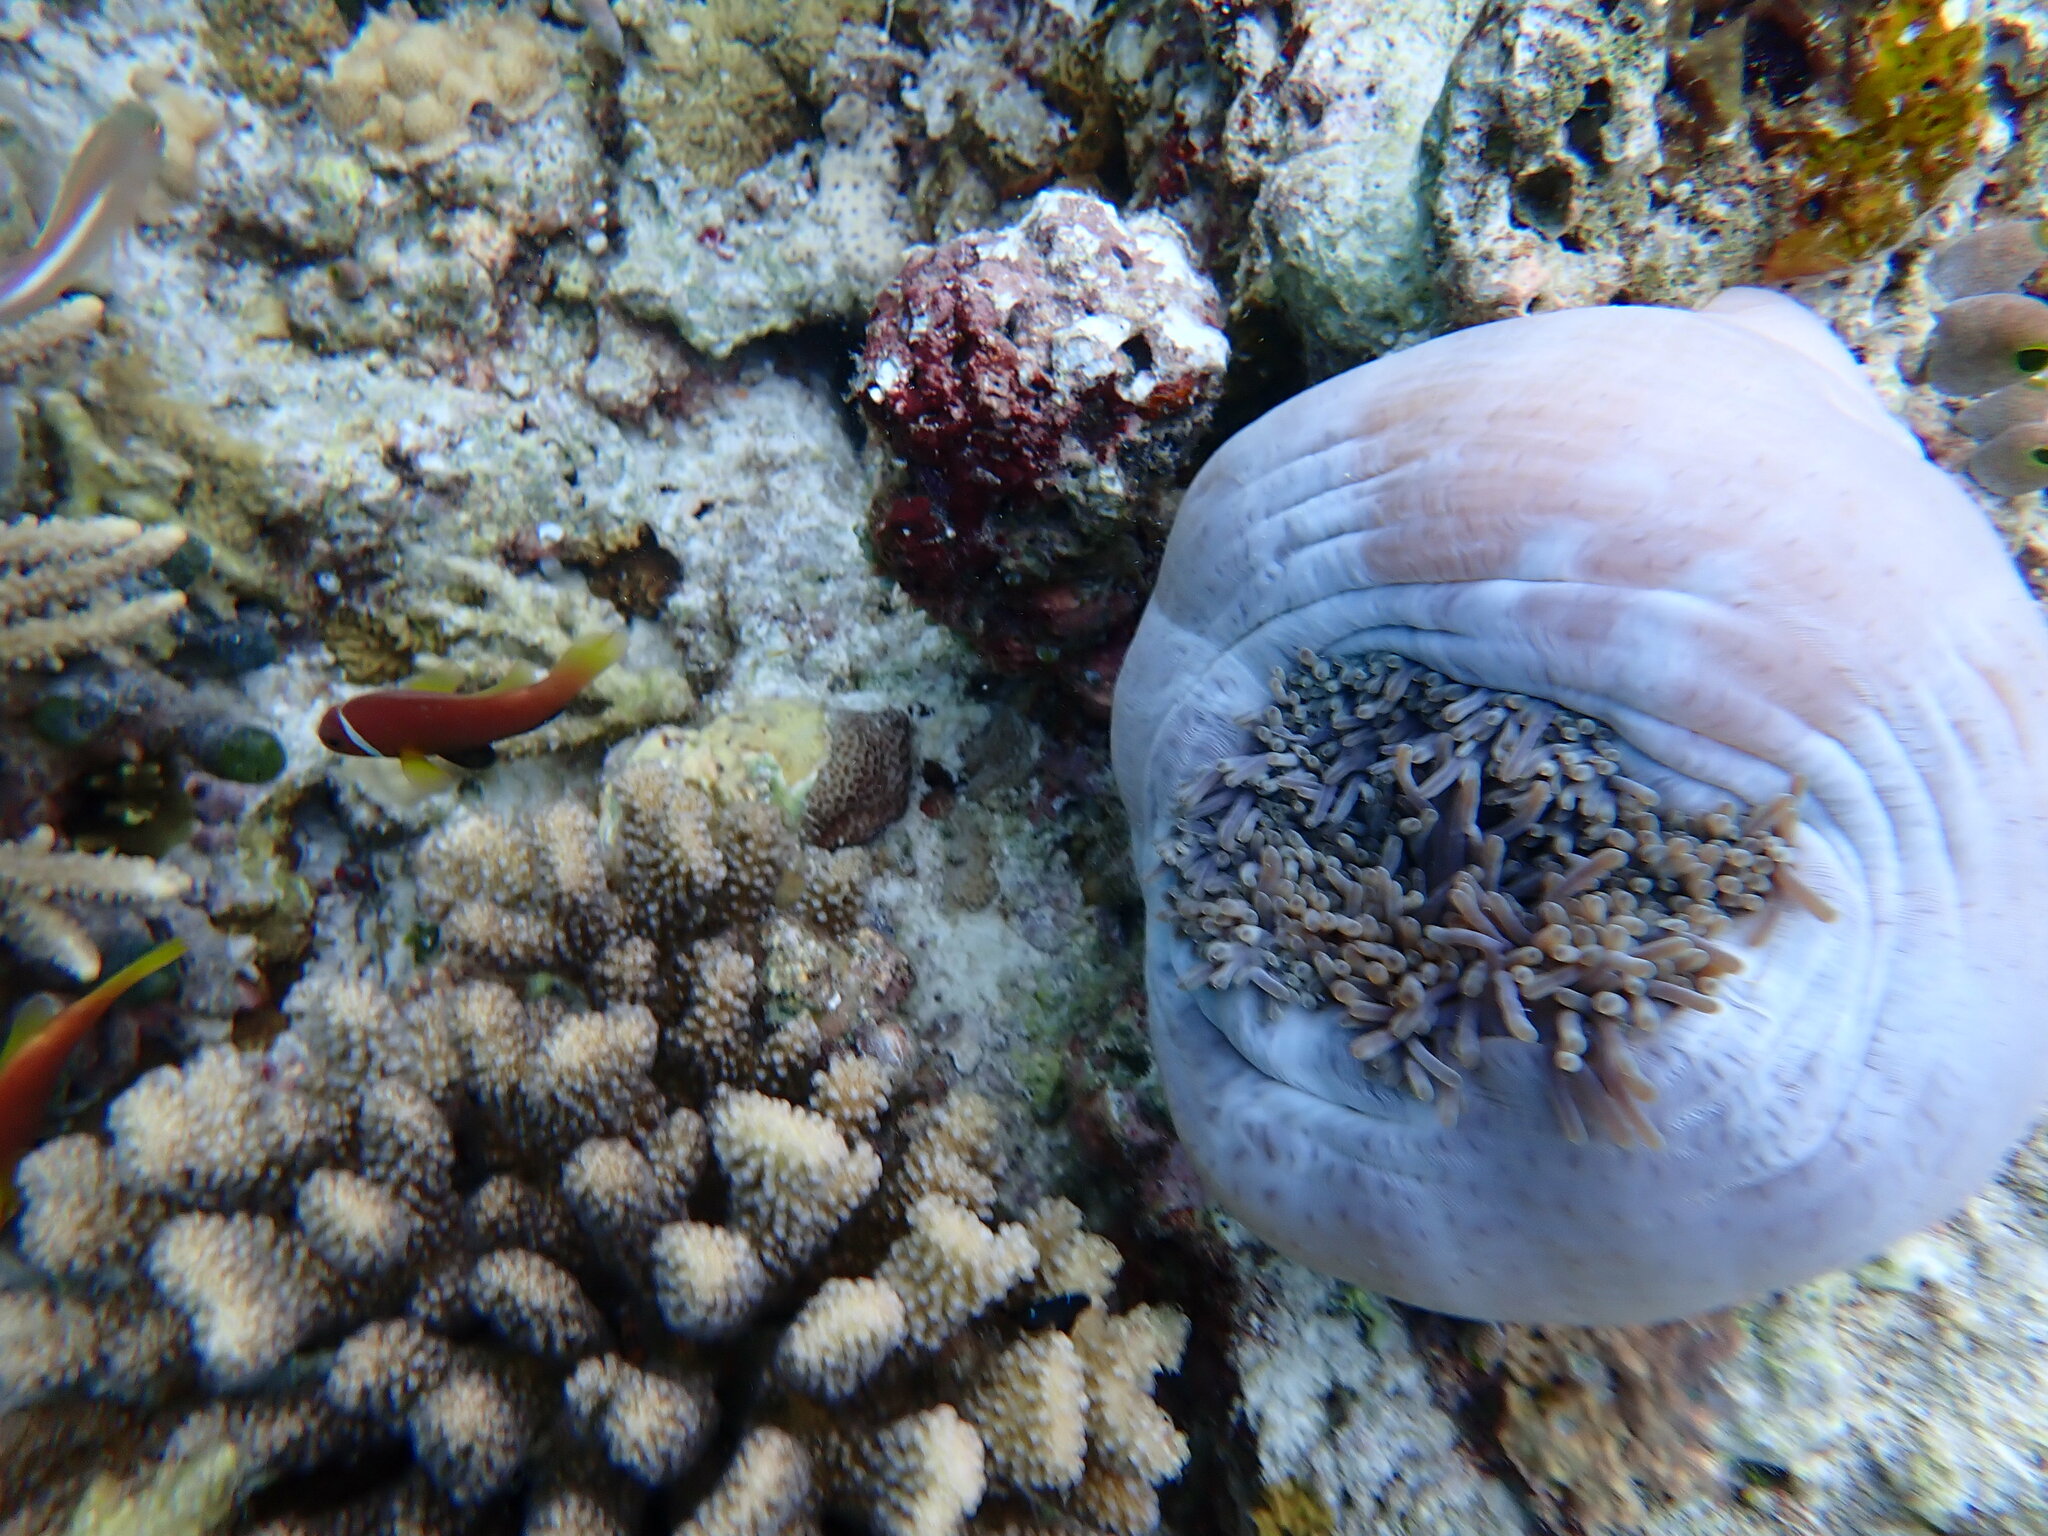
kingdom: Animalia
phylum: Chordata
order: Perciformes
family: Pomacentridae
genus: Amphiprion
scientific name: Amphiprion nigripes
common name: Maldive anemonefish
